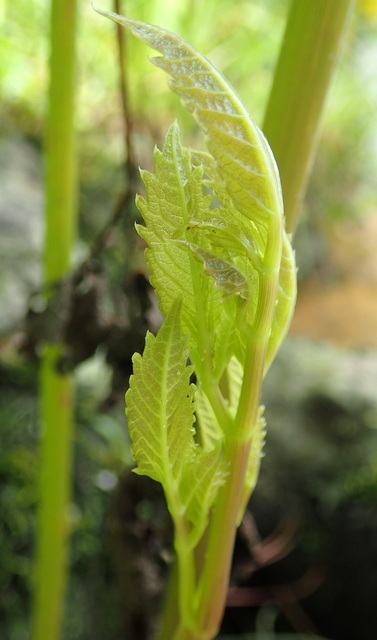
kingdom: Plantae
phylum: Tracheophyta
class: Magnoliopsida
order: Apiales
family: Apiaceae
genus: Cicuta
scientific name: Cicuta maculata
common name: Spotted cowbane
